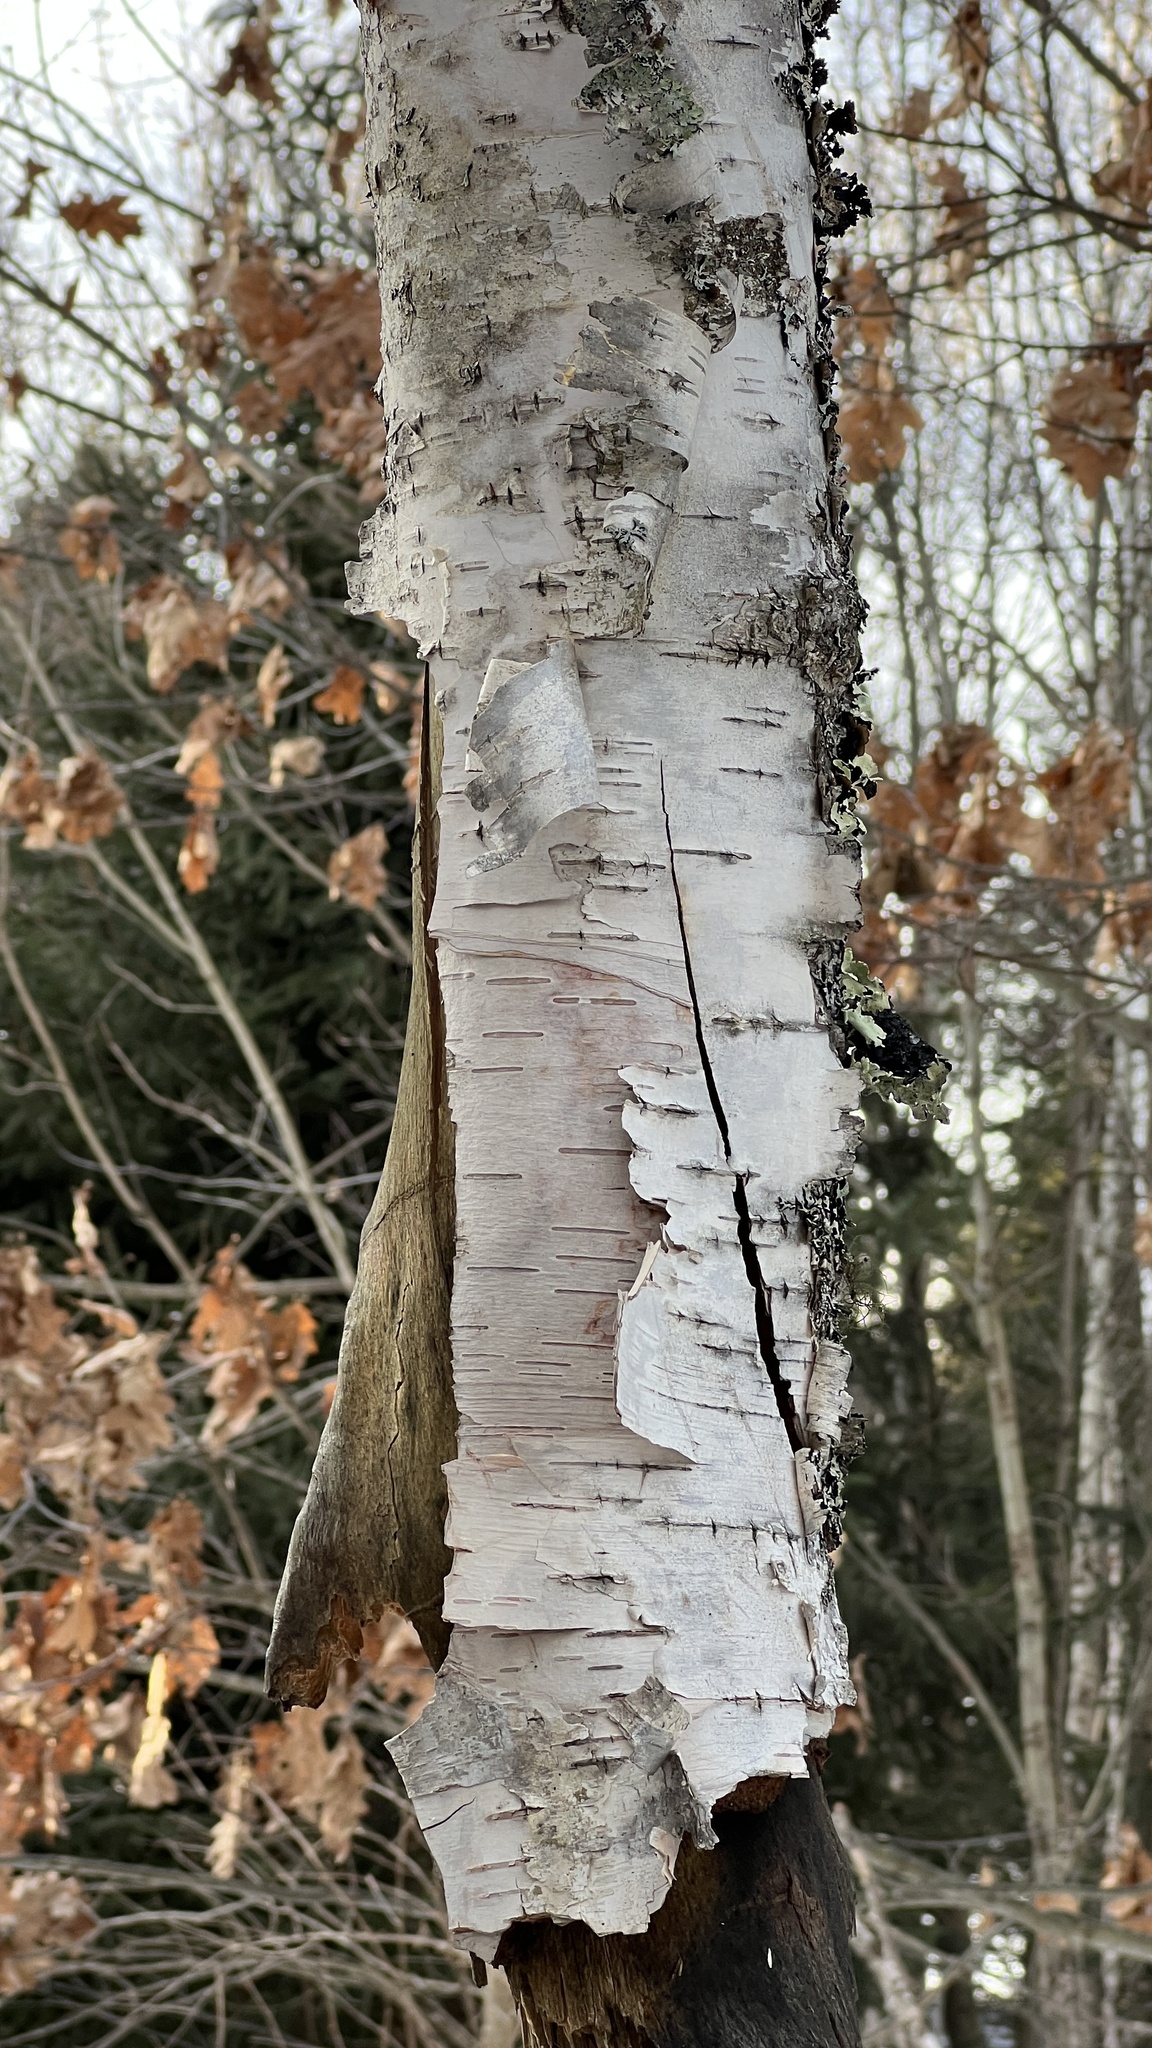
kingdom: Plantae
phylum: Tracheophyta
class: Magnoliopsida
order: Fagales
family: Betulaceae
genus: Betula
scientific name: Betula papyrifera
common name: Paper birch
